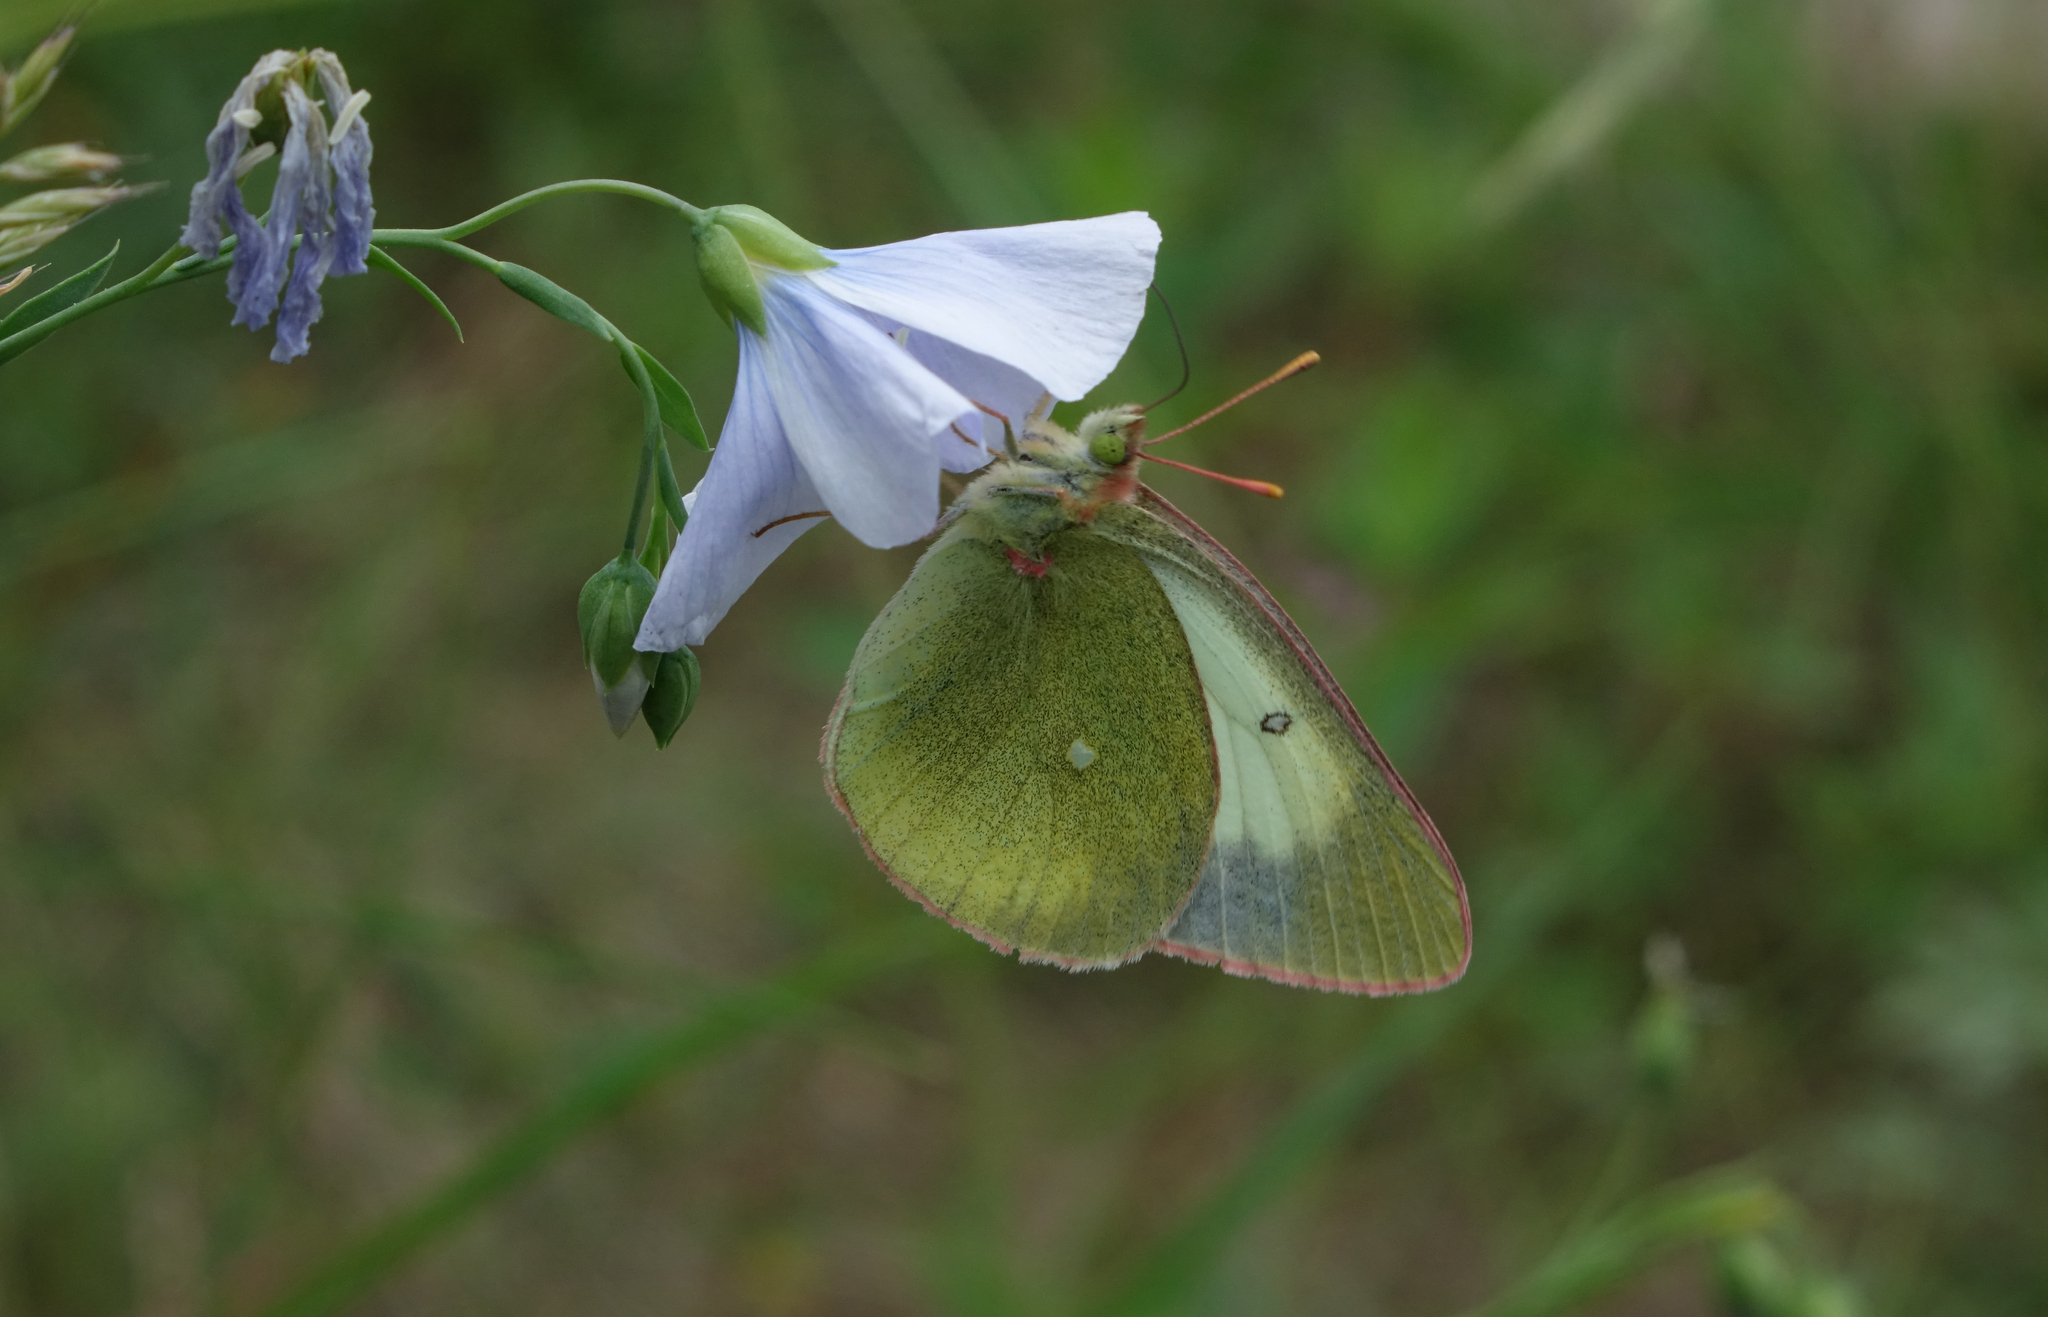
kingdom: Animalia
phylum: Arthropoda
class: Insecta
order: Lepidoptera
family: Pieridae
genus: Colias
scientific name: Colias palaeno
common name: Moorland clouded yellow
